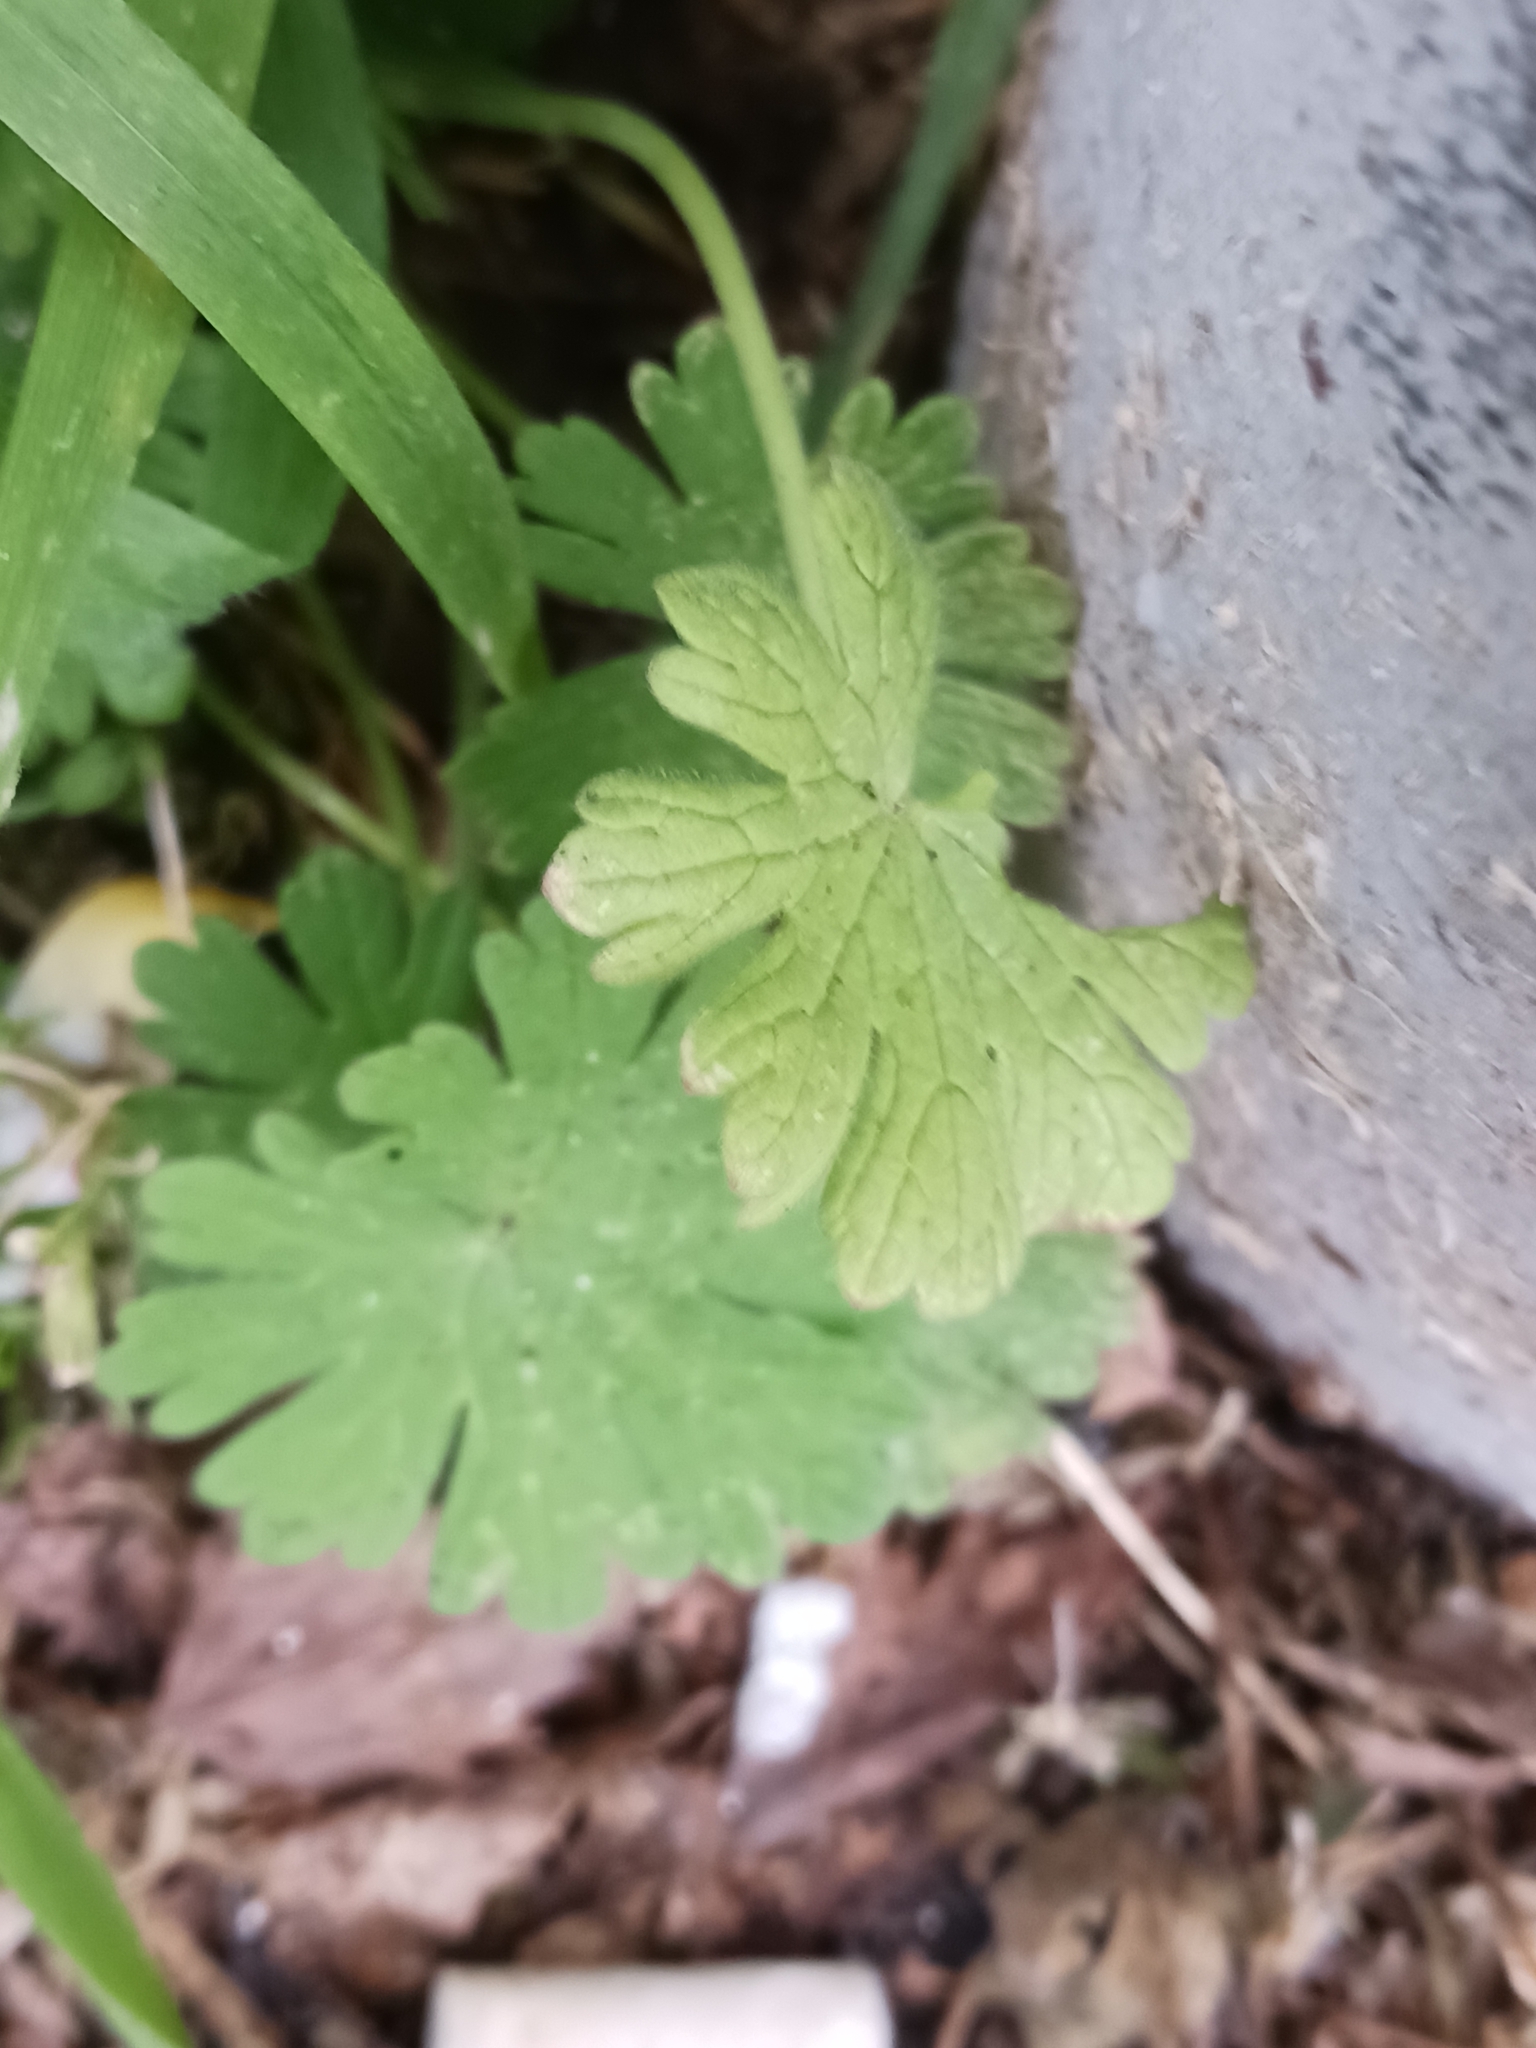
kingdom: Chromista
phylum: Oomycota
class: Peronosporea
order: Peronosporales
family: Peronosporaceae
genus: Peronospora
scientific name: Peronospora conglomerata
